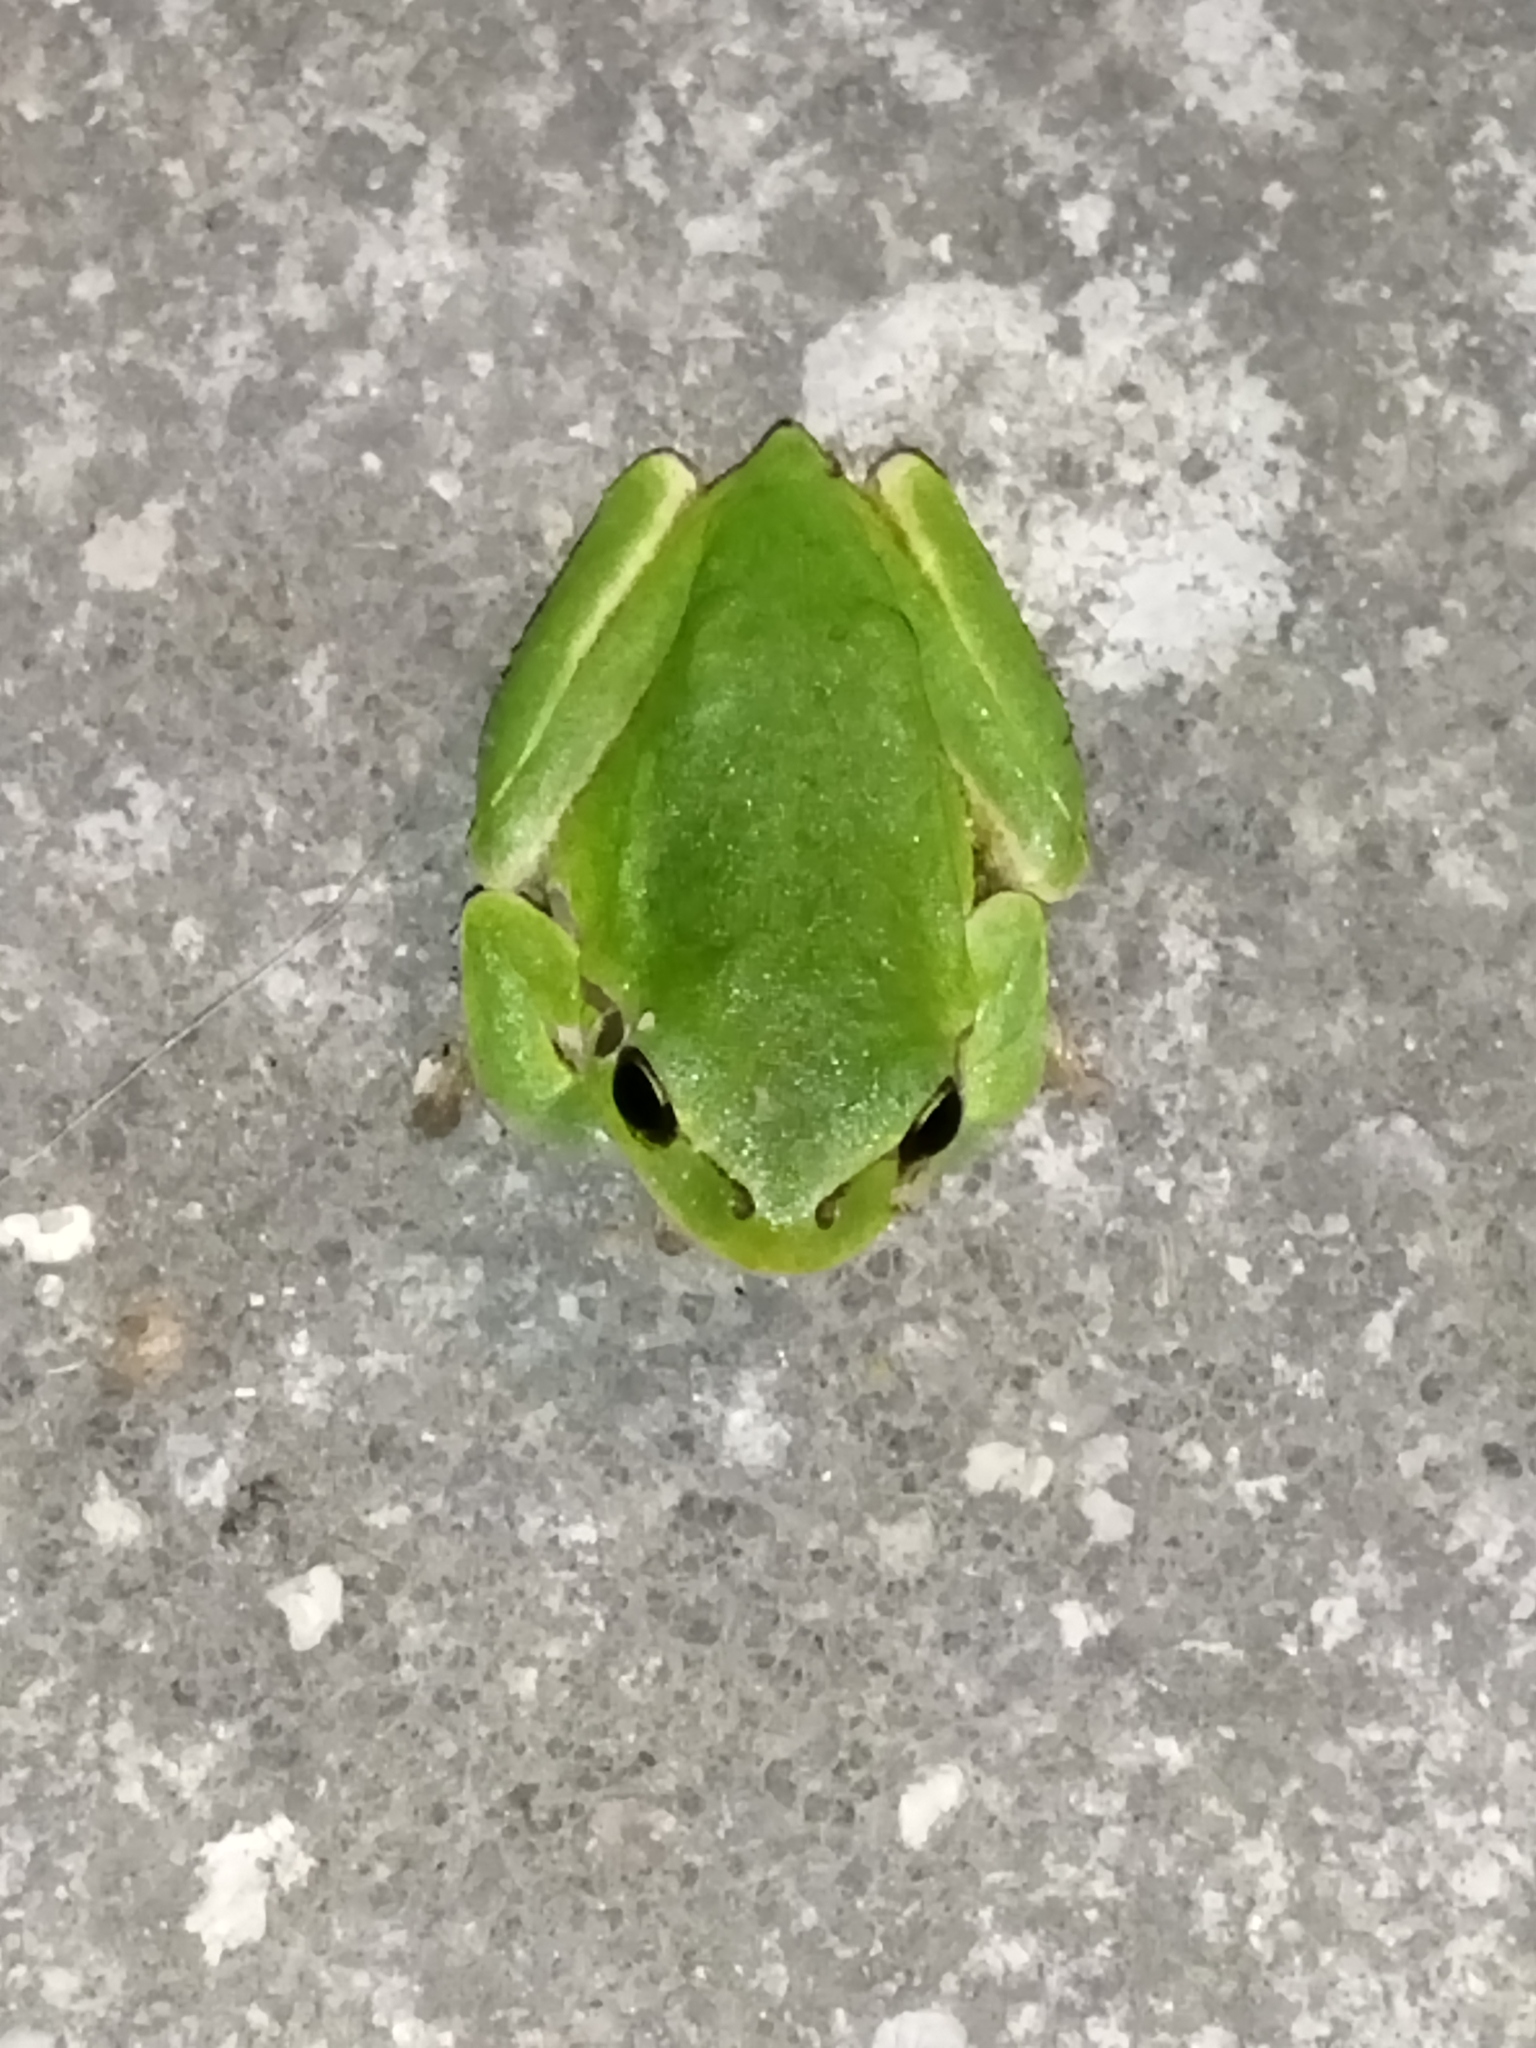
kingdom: Animalia
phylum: Chordata
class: Amphibia
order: Anura
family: Hylidae
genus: Hyla
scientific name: Hyla orientalis
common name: Caucasian treefrog
